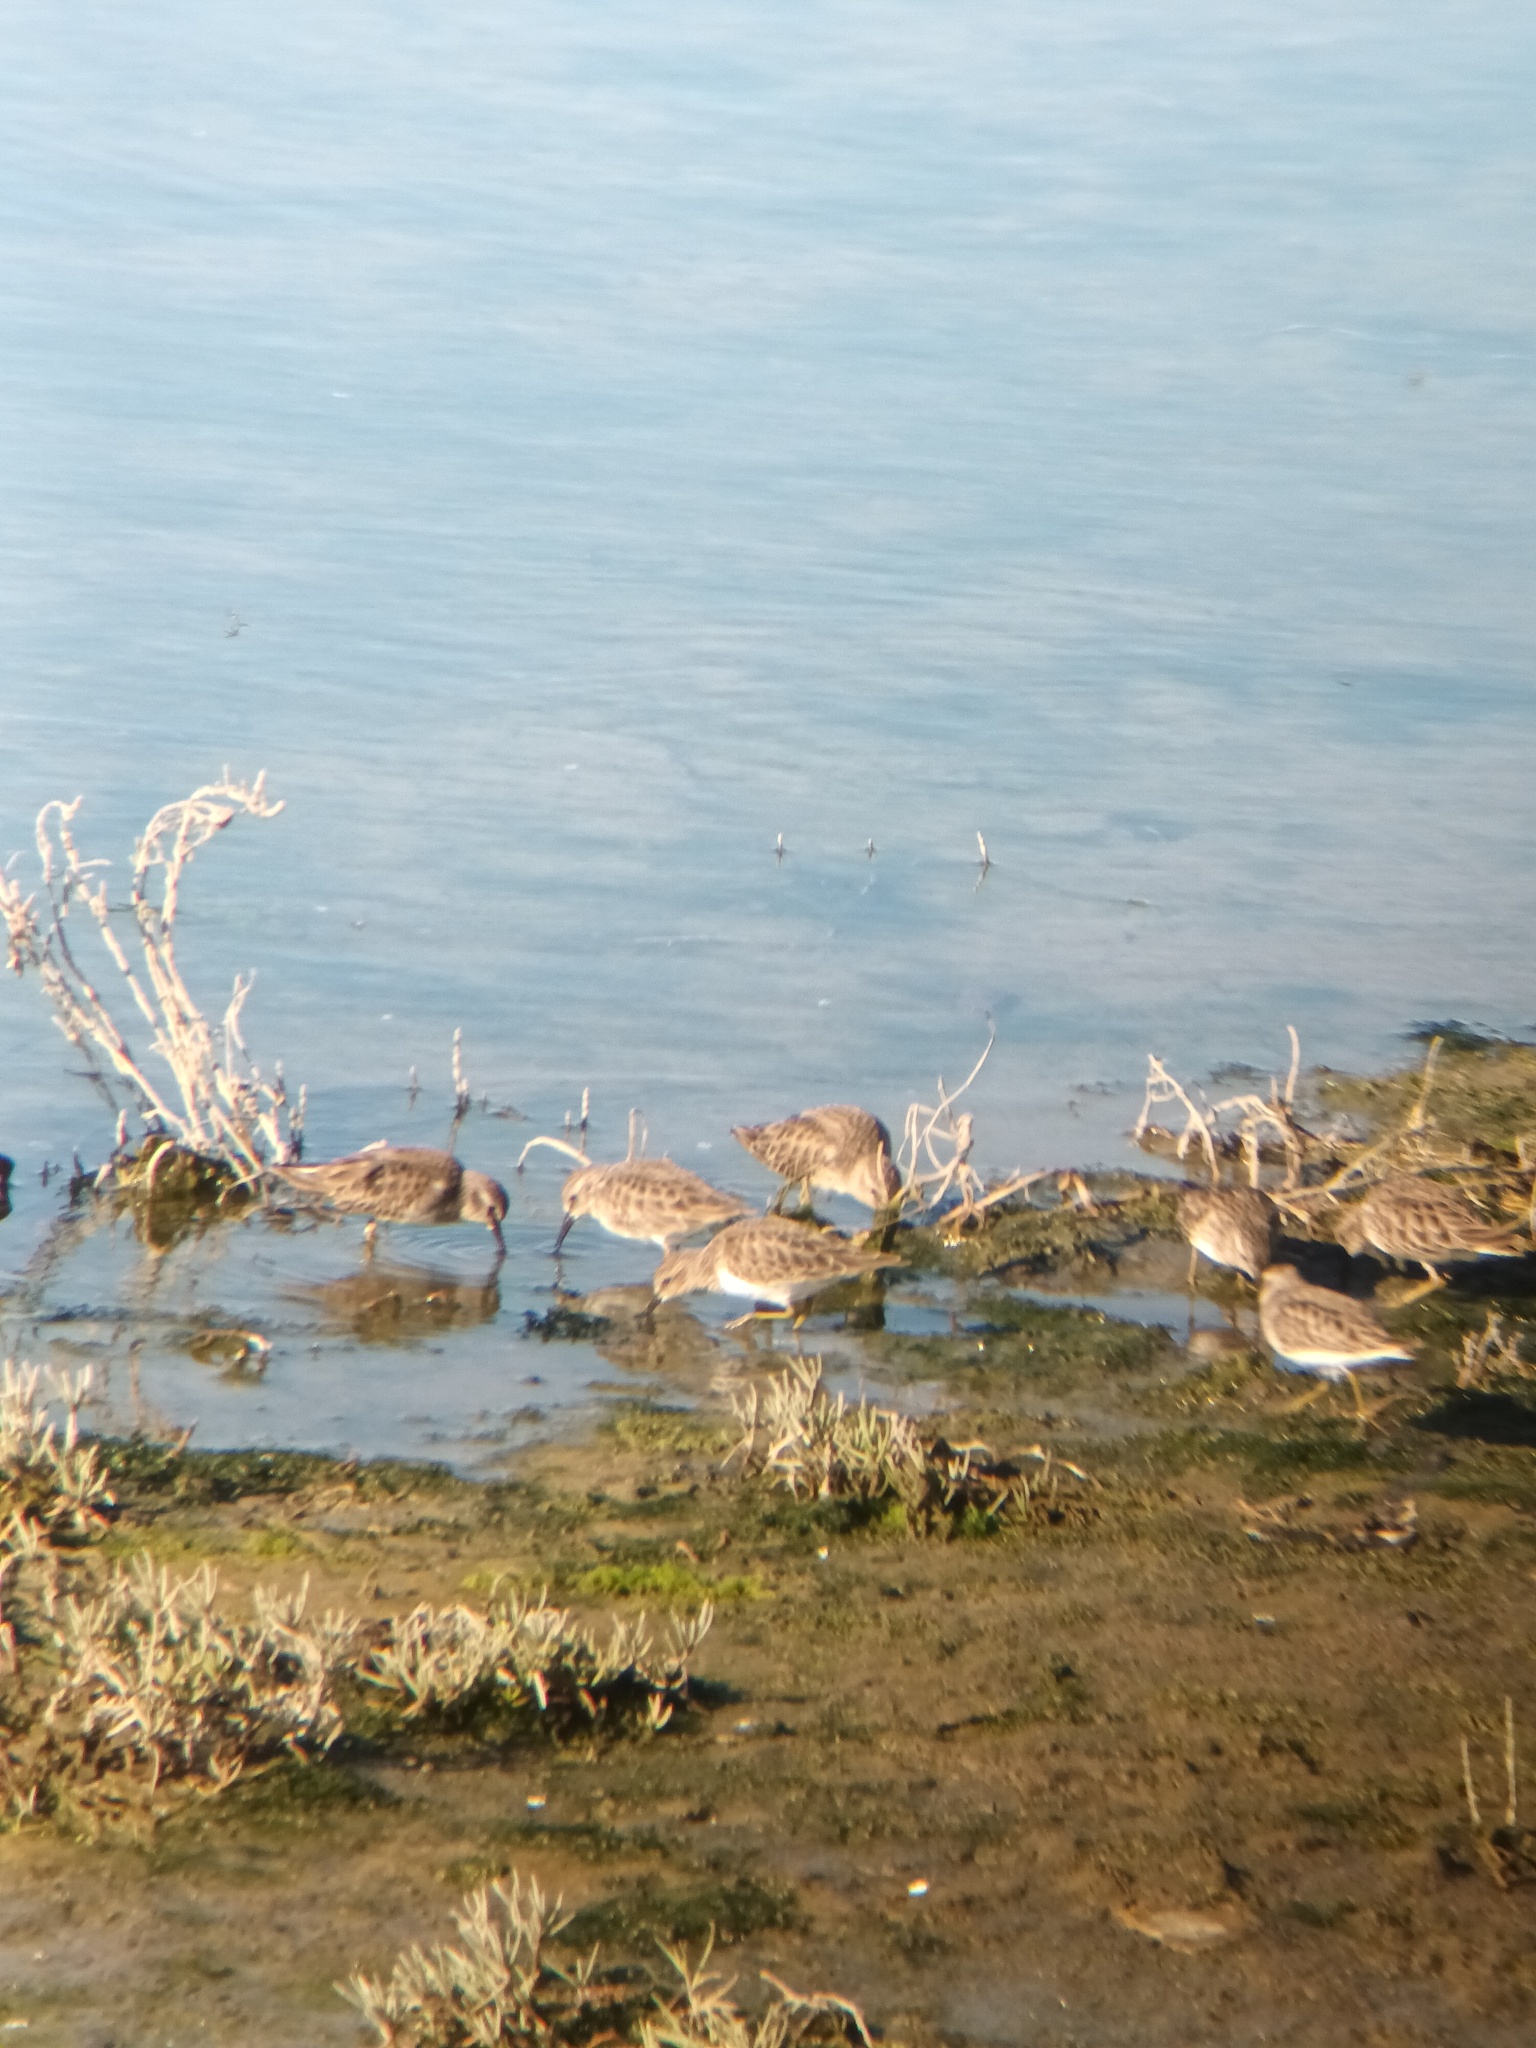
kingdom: Animalia
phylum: Chordata
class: Aves
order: Charadriiformes
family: Scolopacidae
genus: Calidris
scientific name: Calidris minutilla
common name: Least sandpiper
